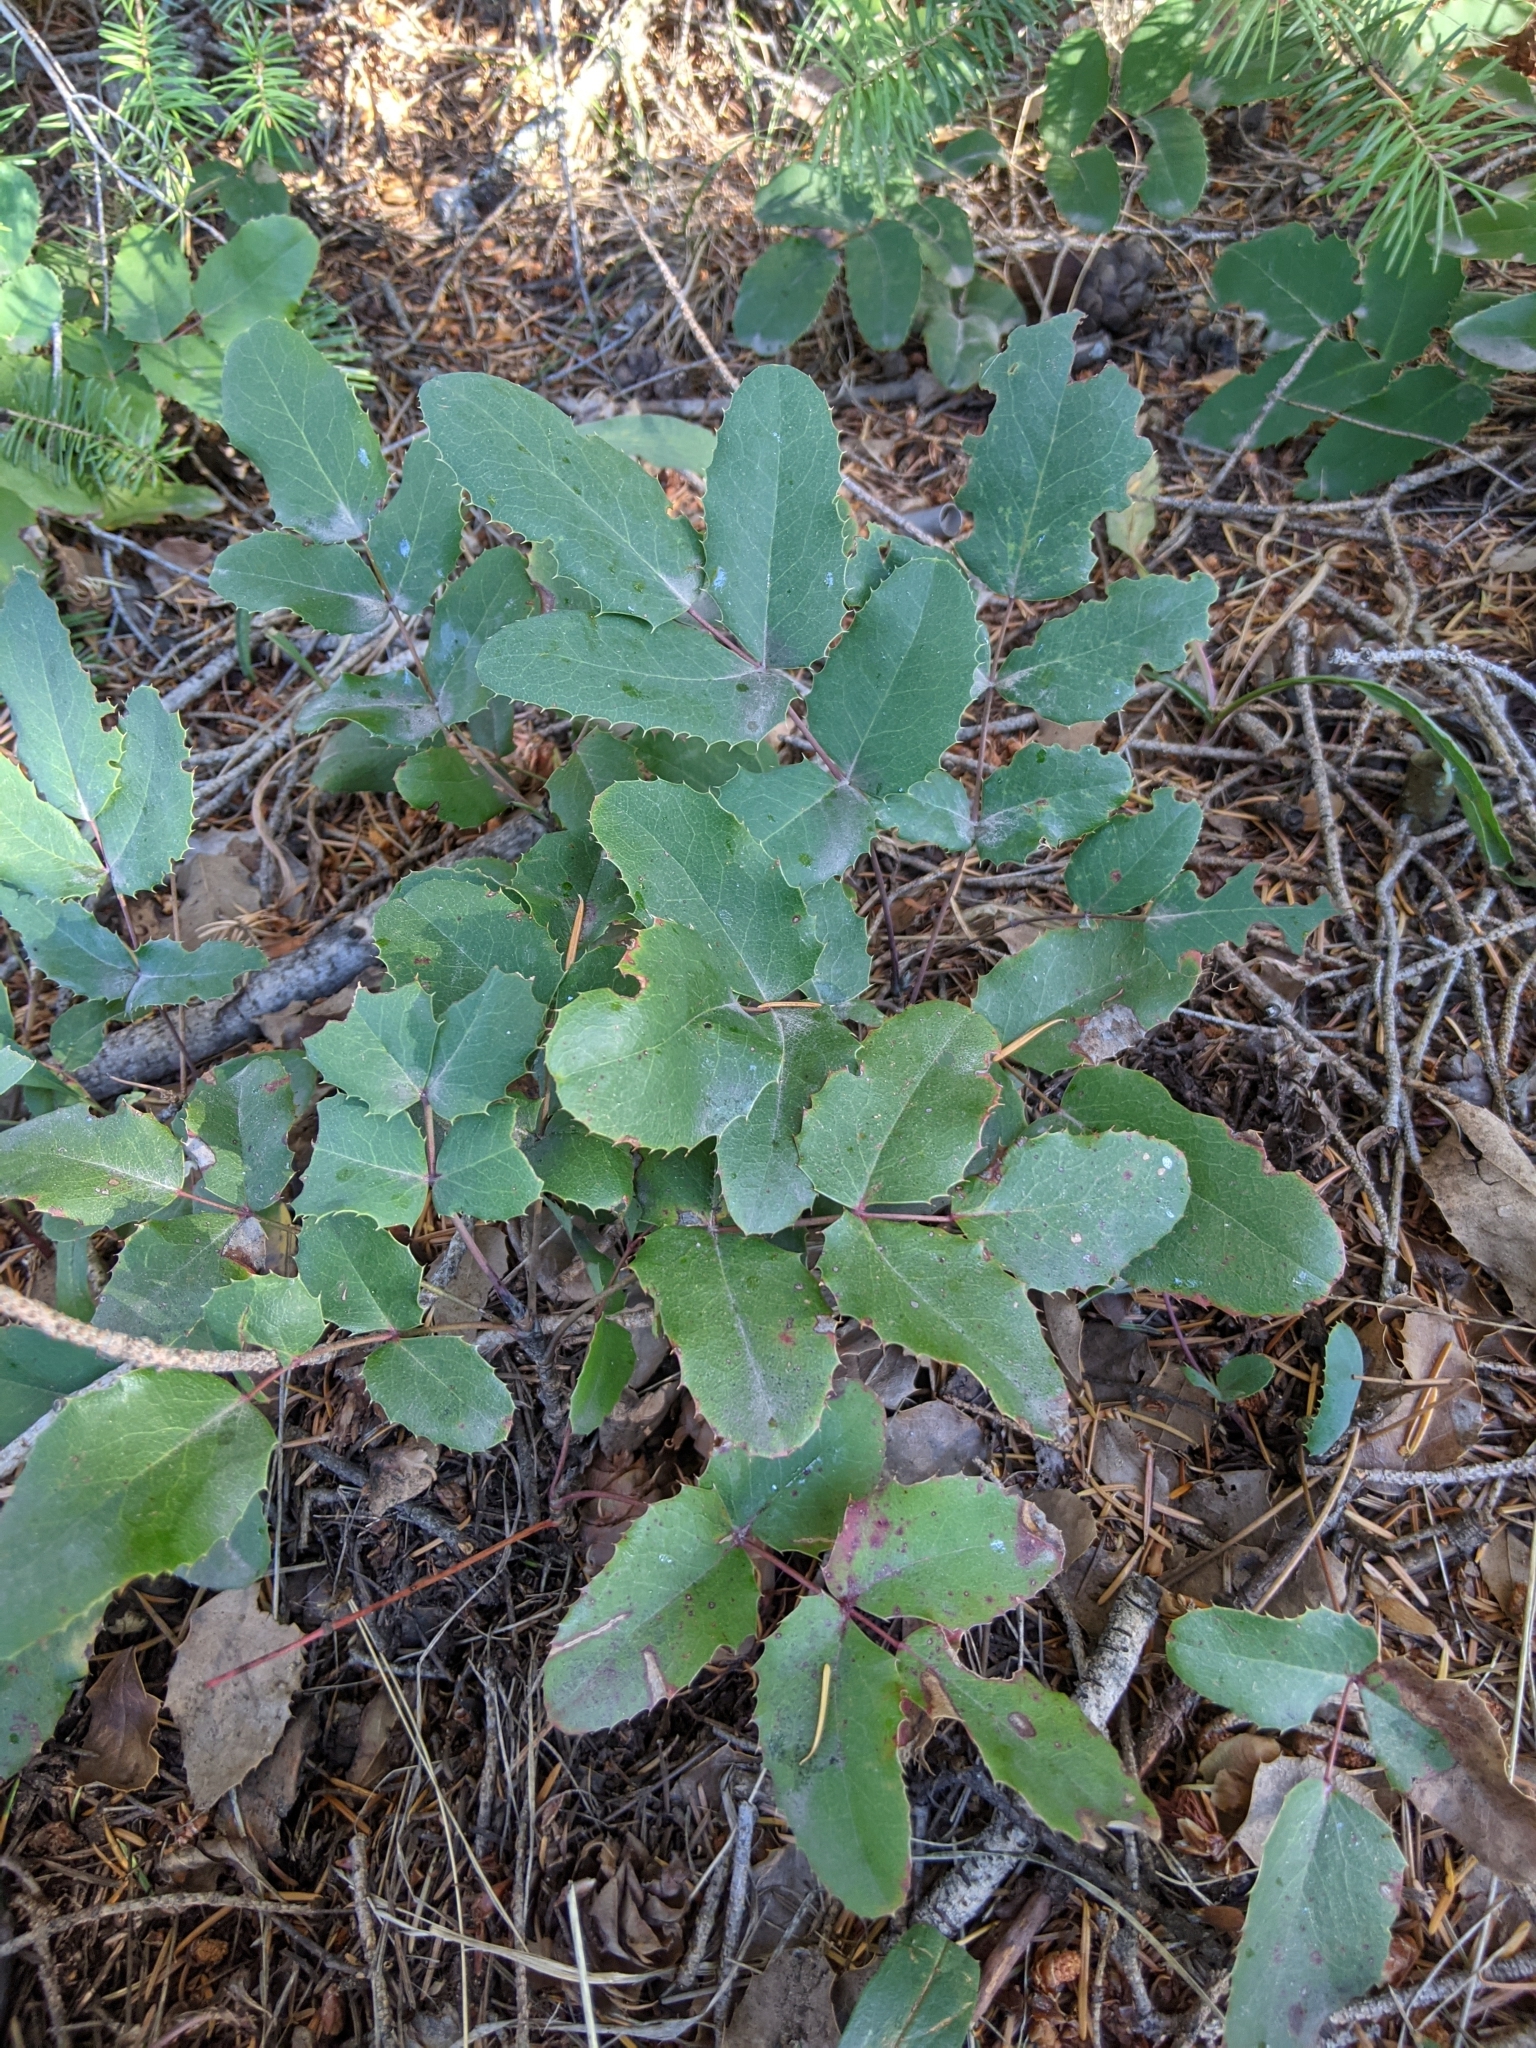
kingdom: Plantae
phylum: Tracheophyta
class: Magnoliopsida
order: Ranunculales
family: Berberidaceae
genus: Mahonia
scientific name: Mahonia repens
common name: Creeping oregon-grape
